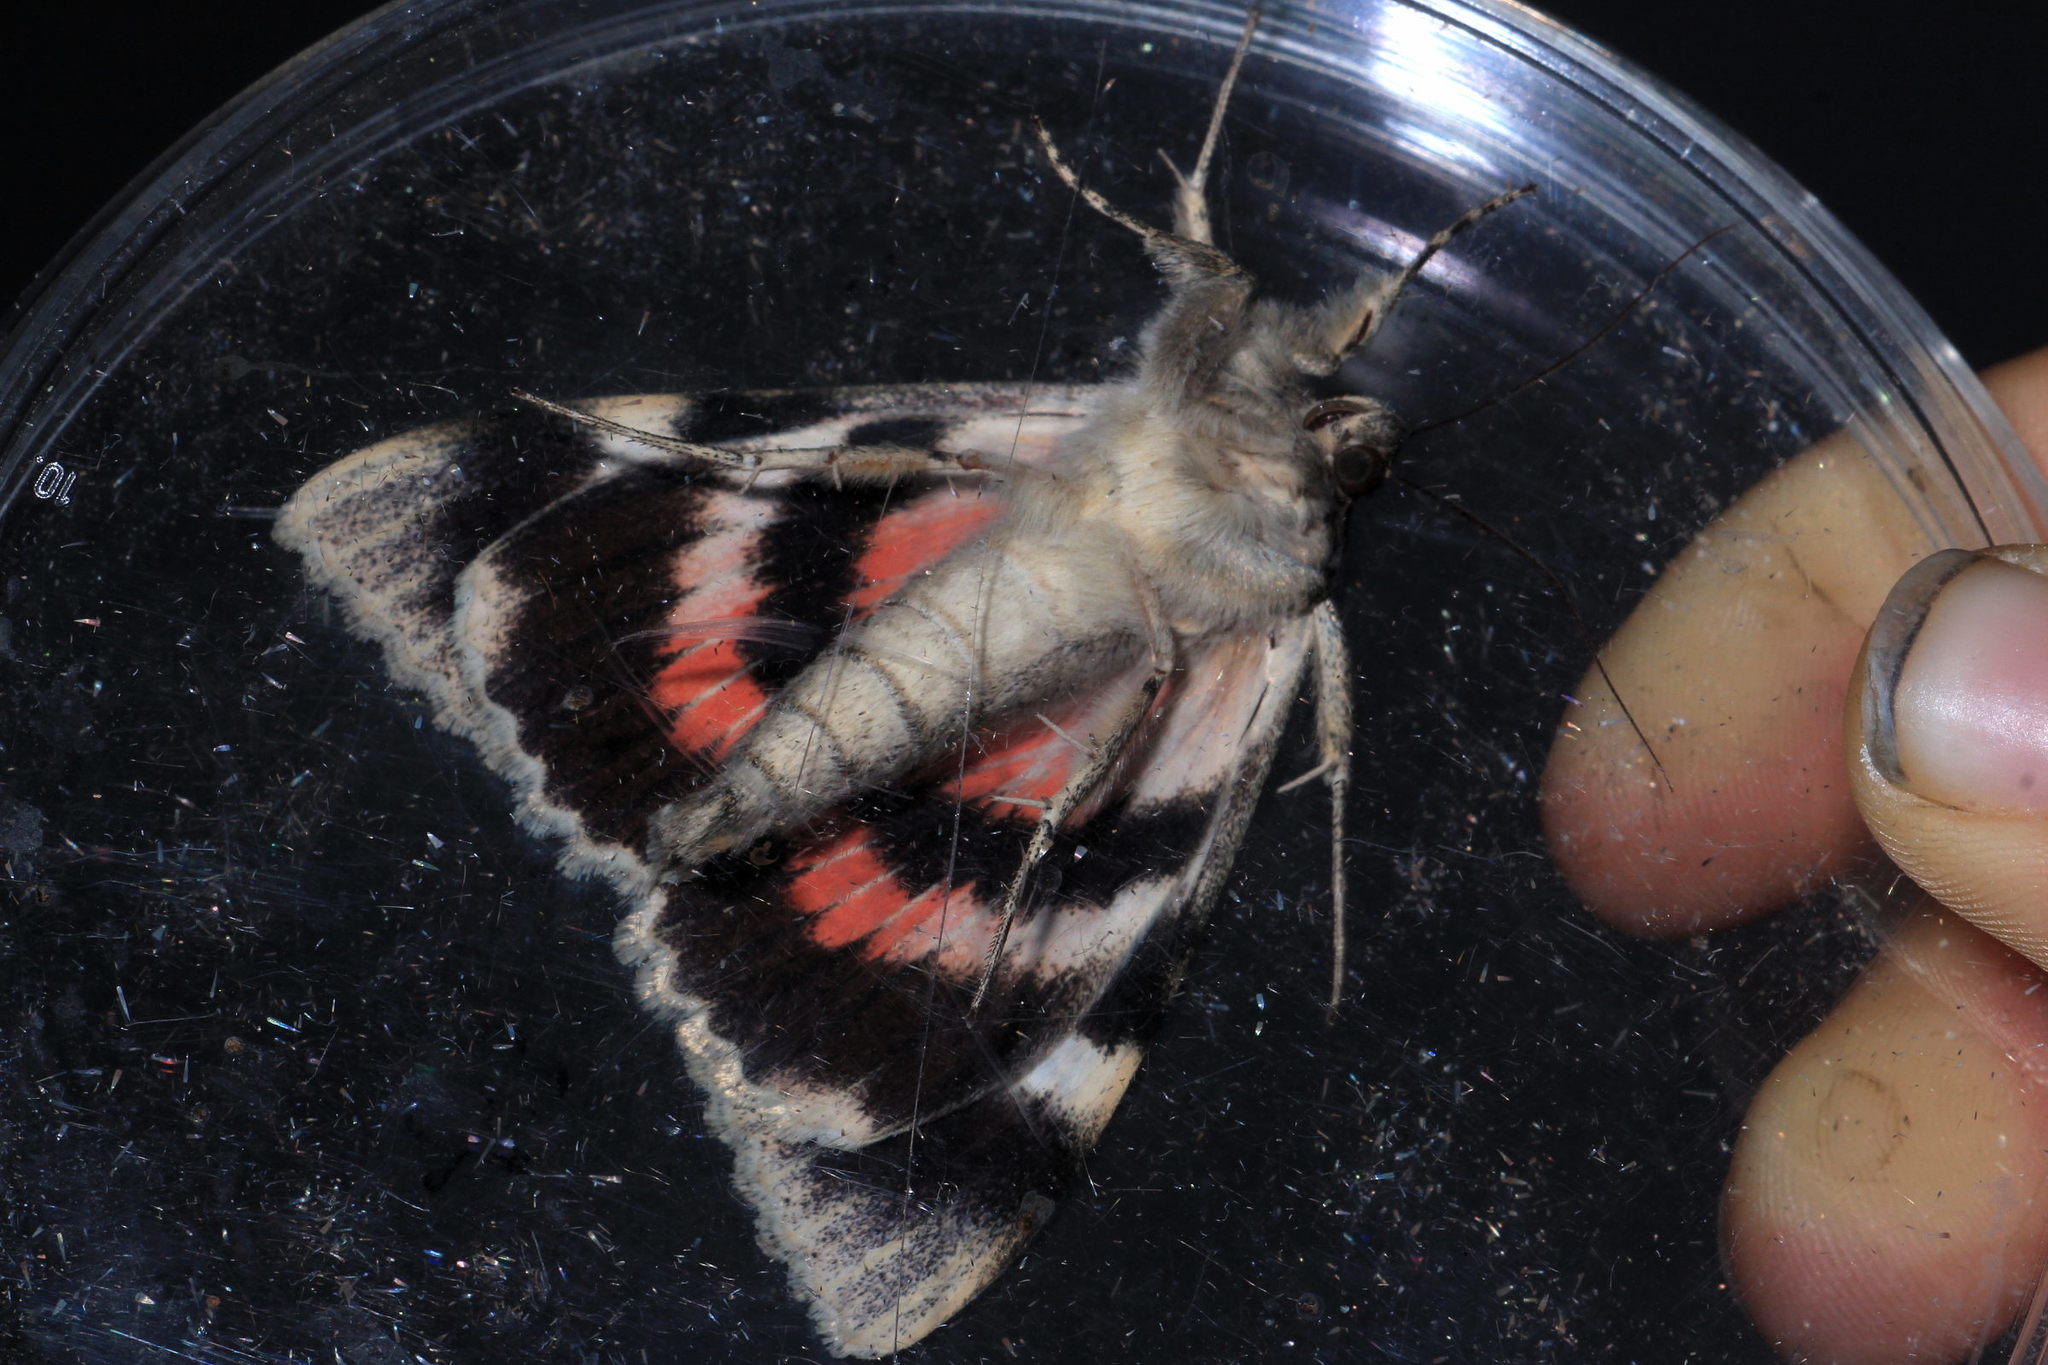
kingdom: Animalia
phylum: Arthropoda
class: Insecta
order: Lepidoptera
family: Erebidae
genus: Catocala
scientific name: Catocala elocata
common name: French red underwing
